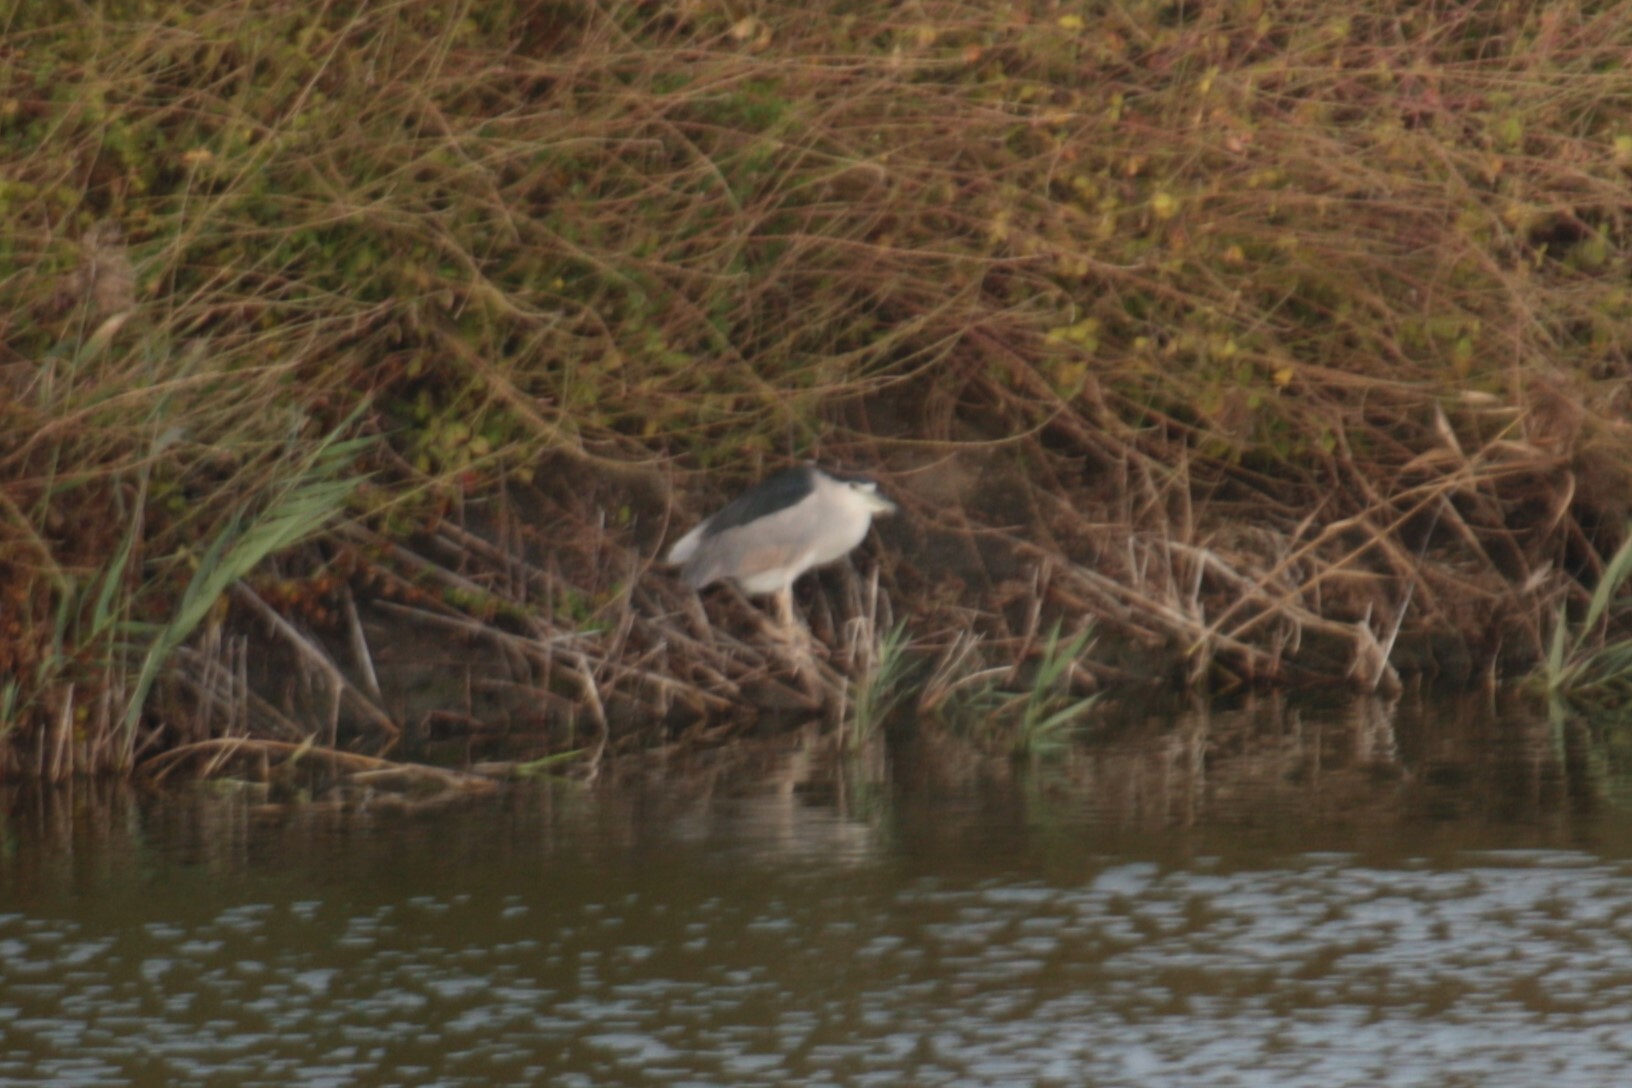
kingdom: Animalia
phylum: Chordata
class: Aves
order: Pelecaniformes
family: Ardeidae
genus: Nycticorax
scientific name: Nycticorax nycticorax
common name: Black-crowned night heron
